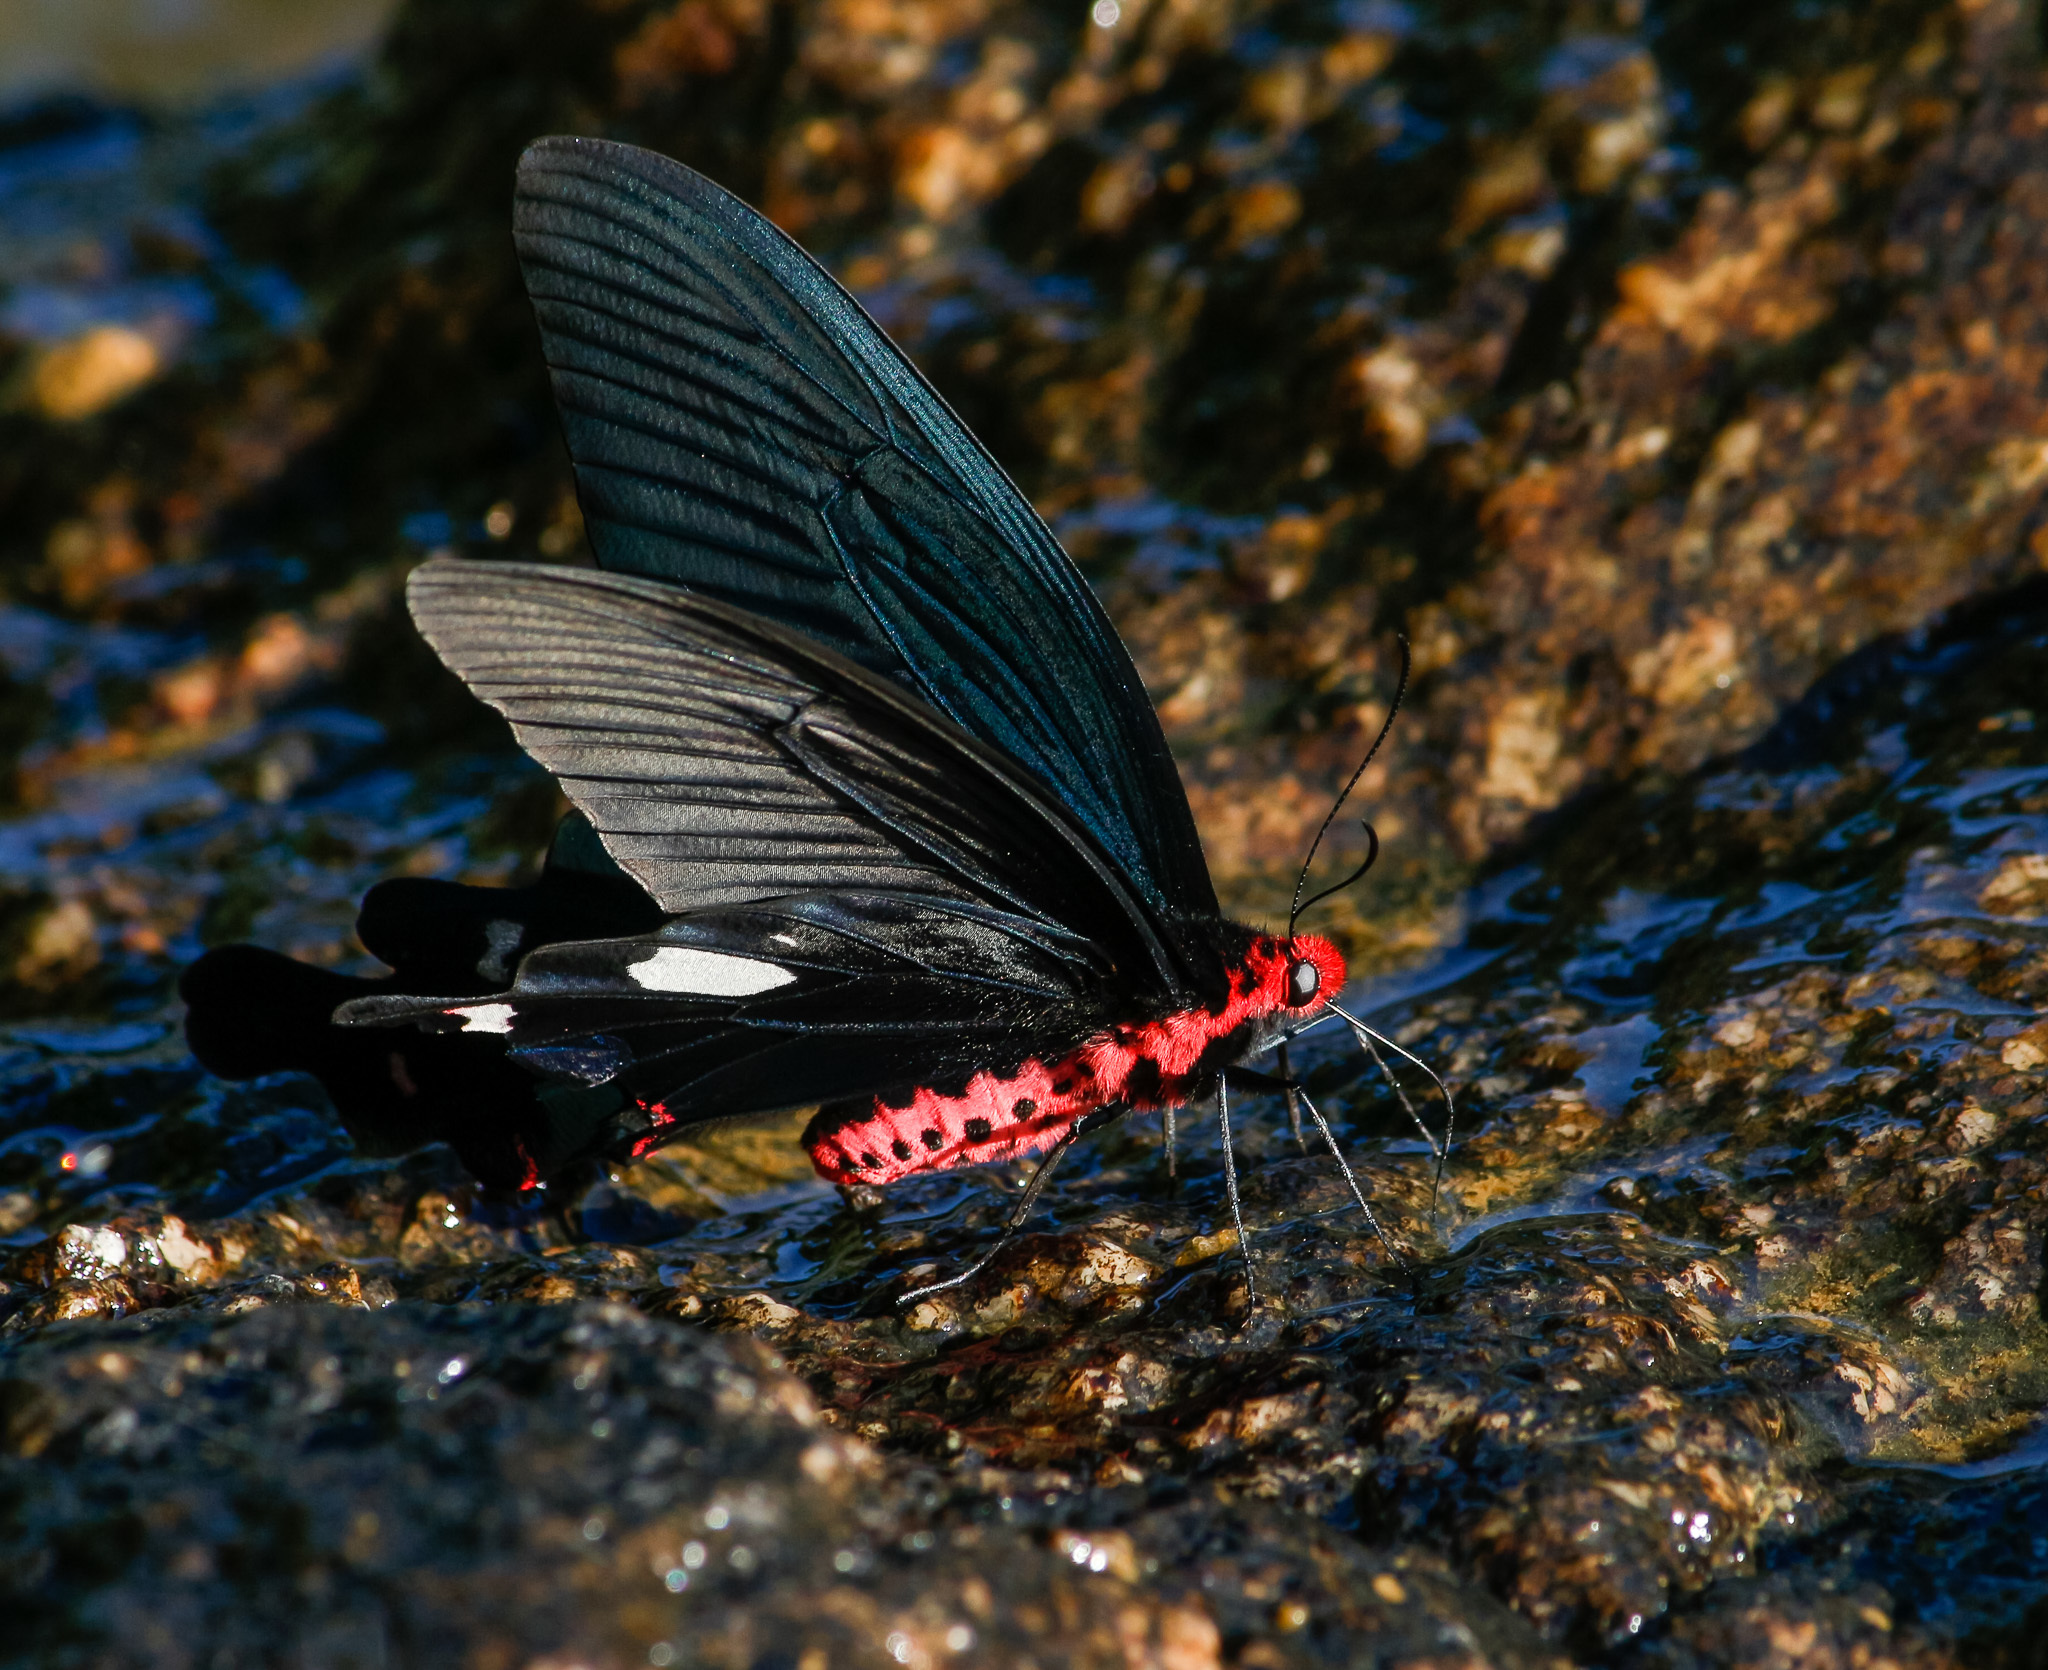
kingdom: Animalia
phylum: Arthropoda
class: Insecta
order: Lepidoptera
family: Papilionidae
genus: Byasa
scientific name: Byasa dasarada
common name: Great windmill
